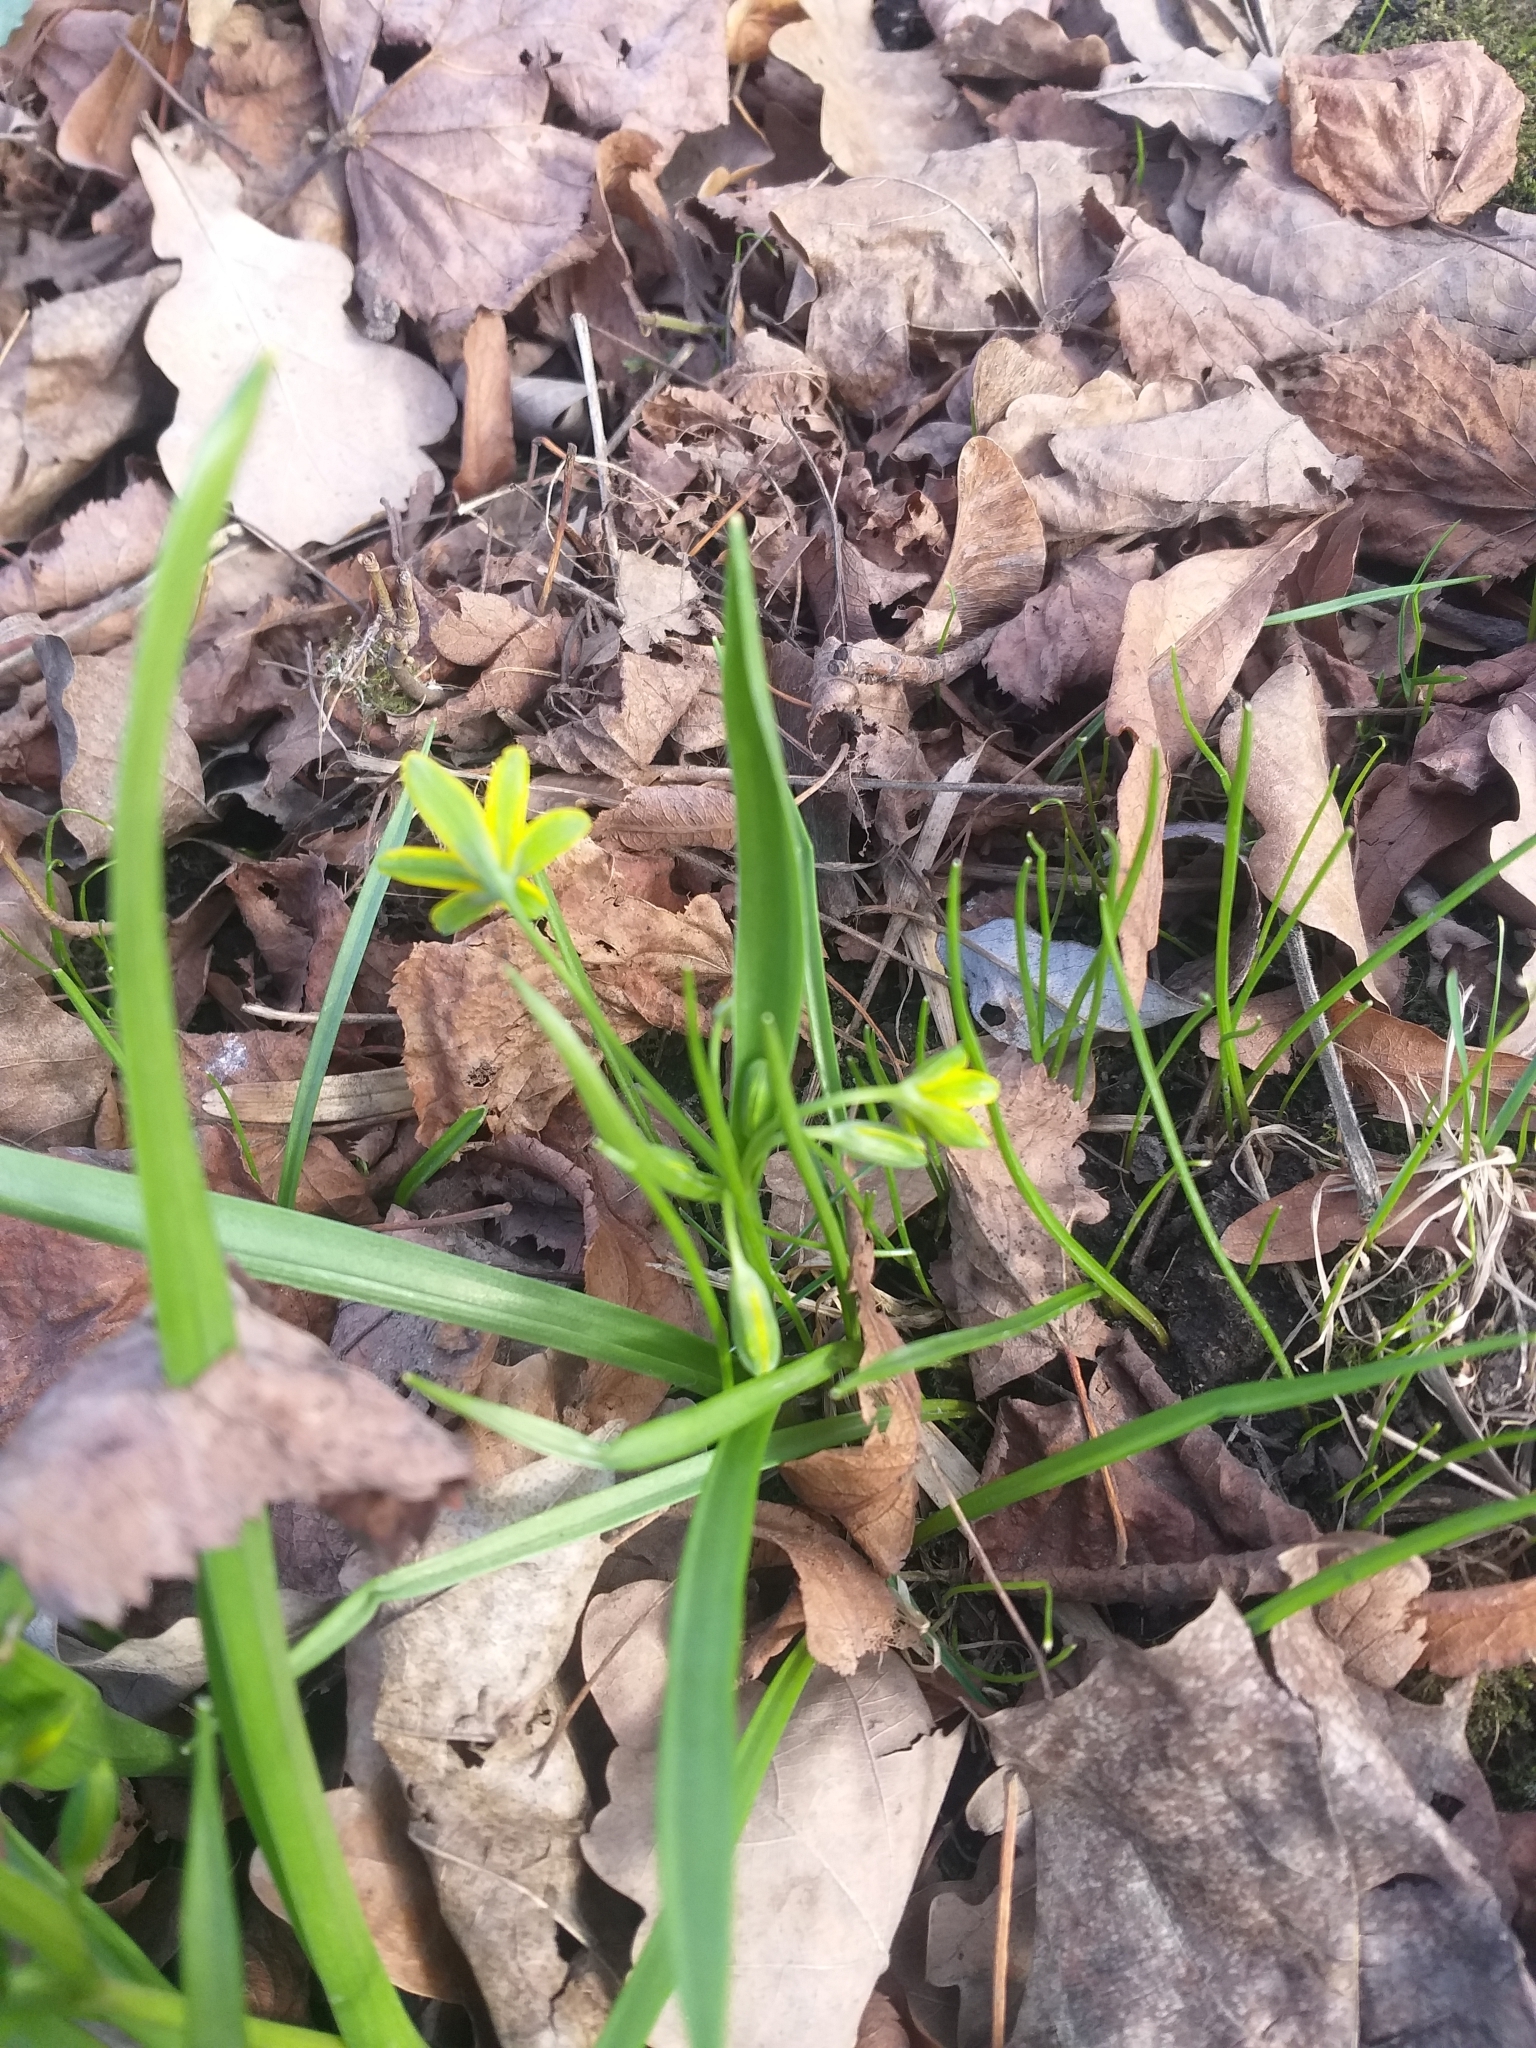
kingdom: Plantae
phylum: Tracheophyta
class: Liliopsida
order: Liliales
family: Liliaceae
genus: Gagea
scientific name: Gagea lutea
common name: Yellow star-of-bethlehem
